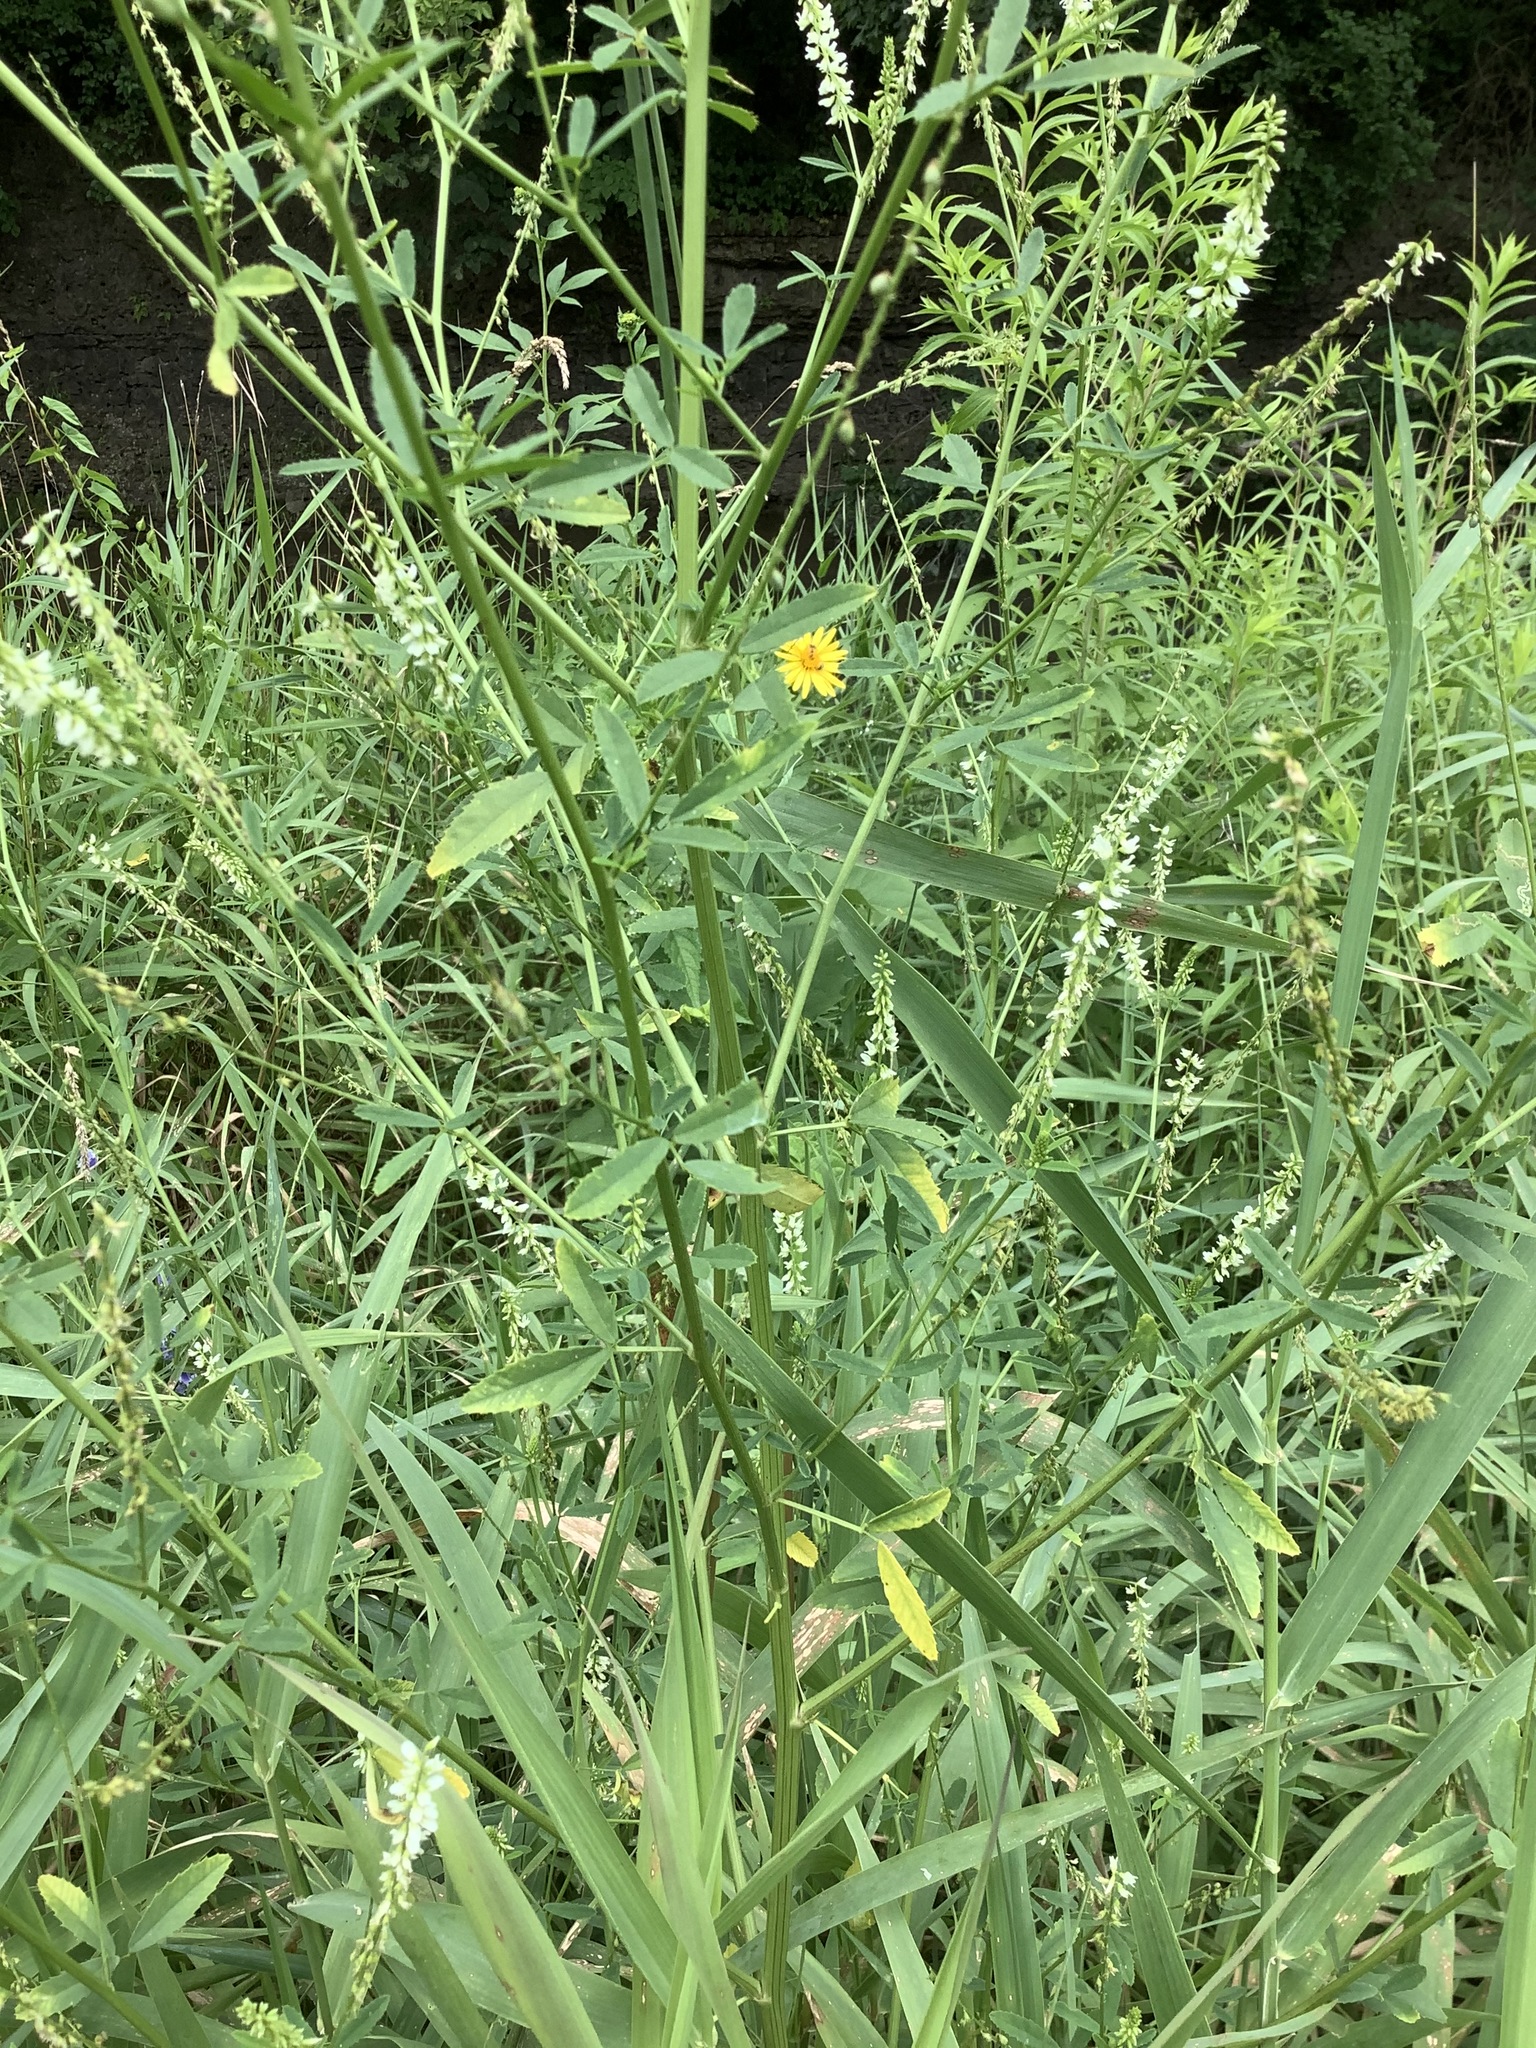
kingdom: Plantae
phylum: Tracheophyta
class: Magnoliopsida
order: Fabales
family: Fabaceae
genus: Melilotus
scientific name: Melilotus albus
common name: White melilot
